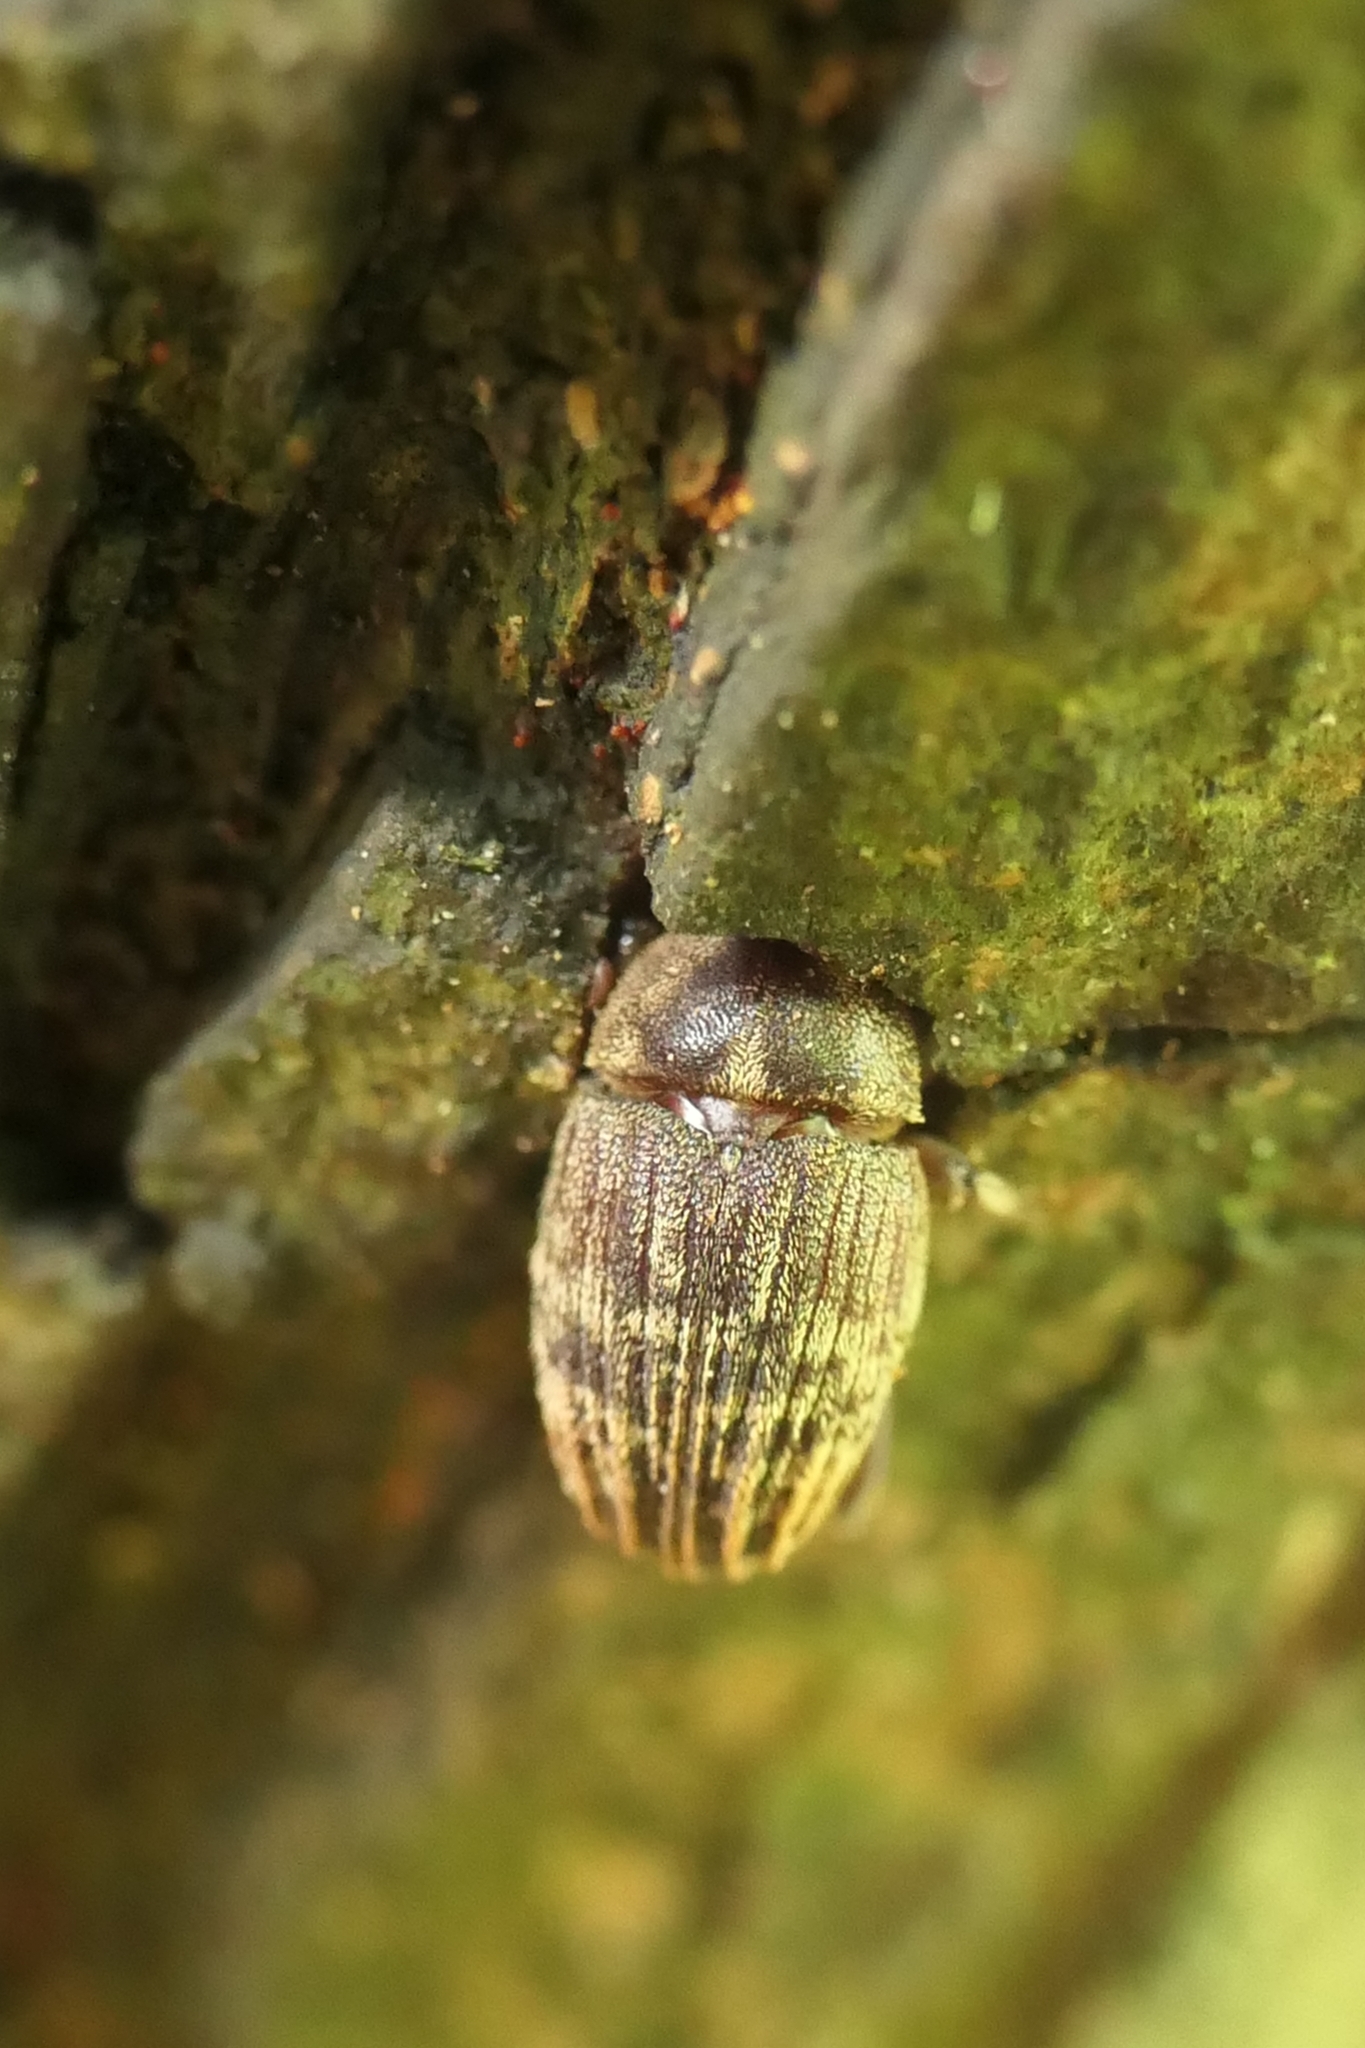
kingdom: Animalia
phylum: Arthropoda
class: Insecta
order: Coleoptera
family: Curculionidae
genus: Psepholax
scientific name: Psepholax sulcatus
